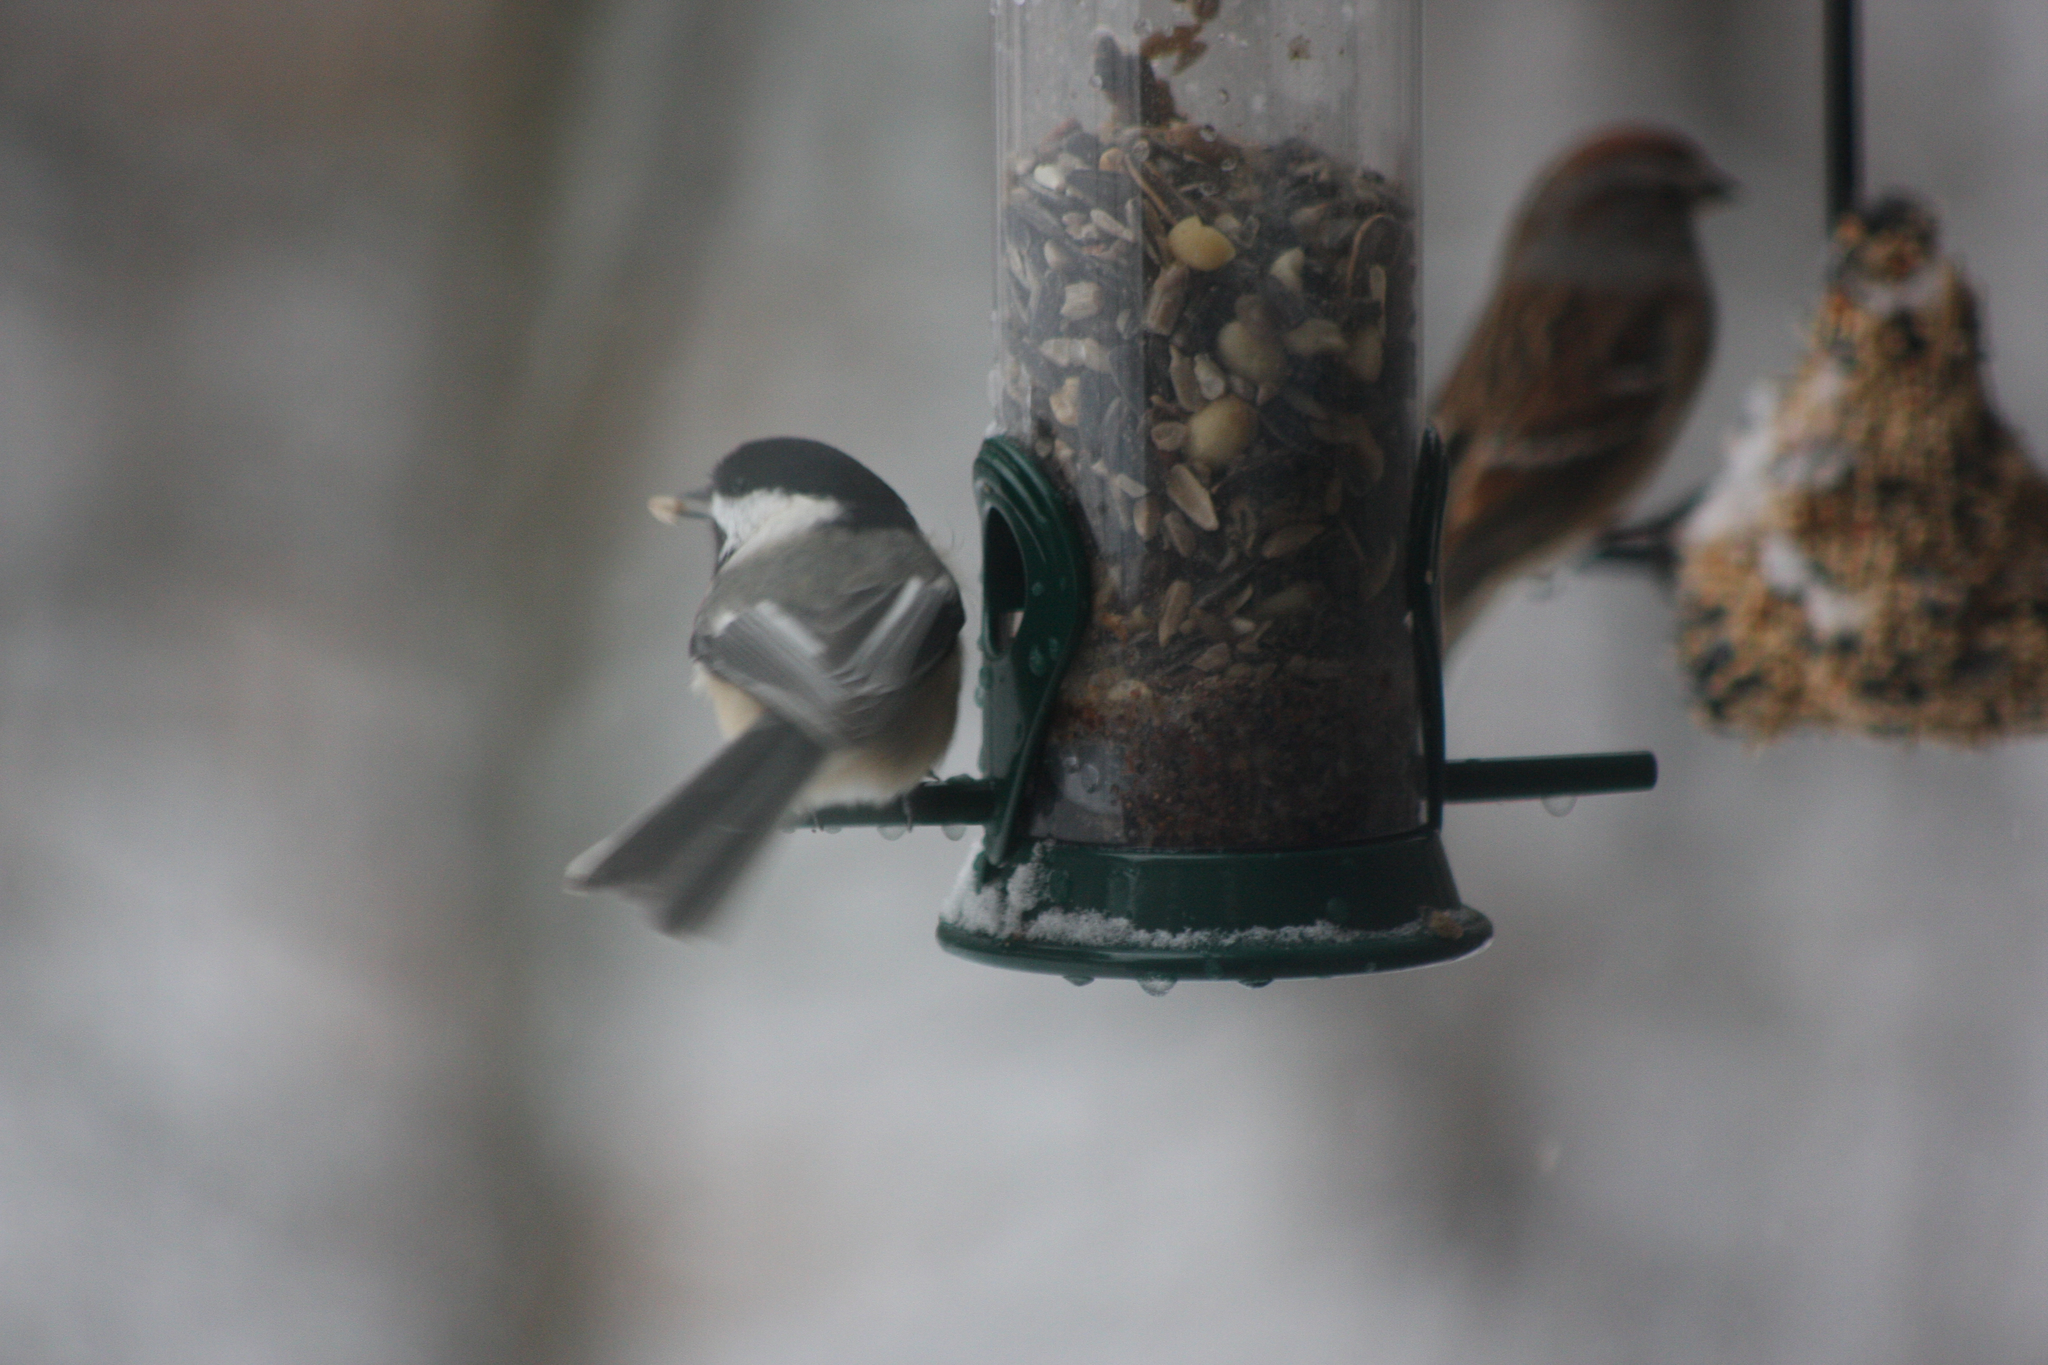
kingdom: Animalia
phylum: Chordata
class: Aves
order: Passeriformes
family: Paridae
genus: Poecile
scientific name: Poecile atricapillus
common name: Black-capped chickadee
